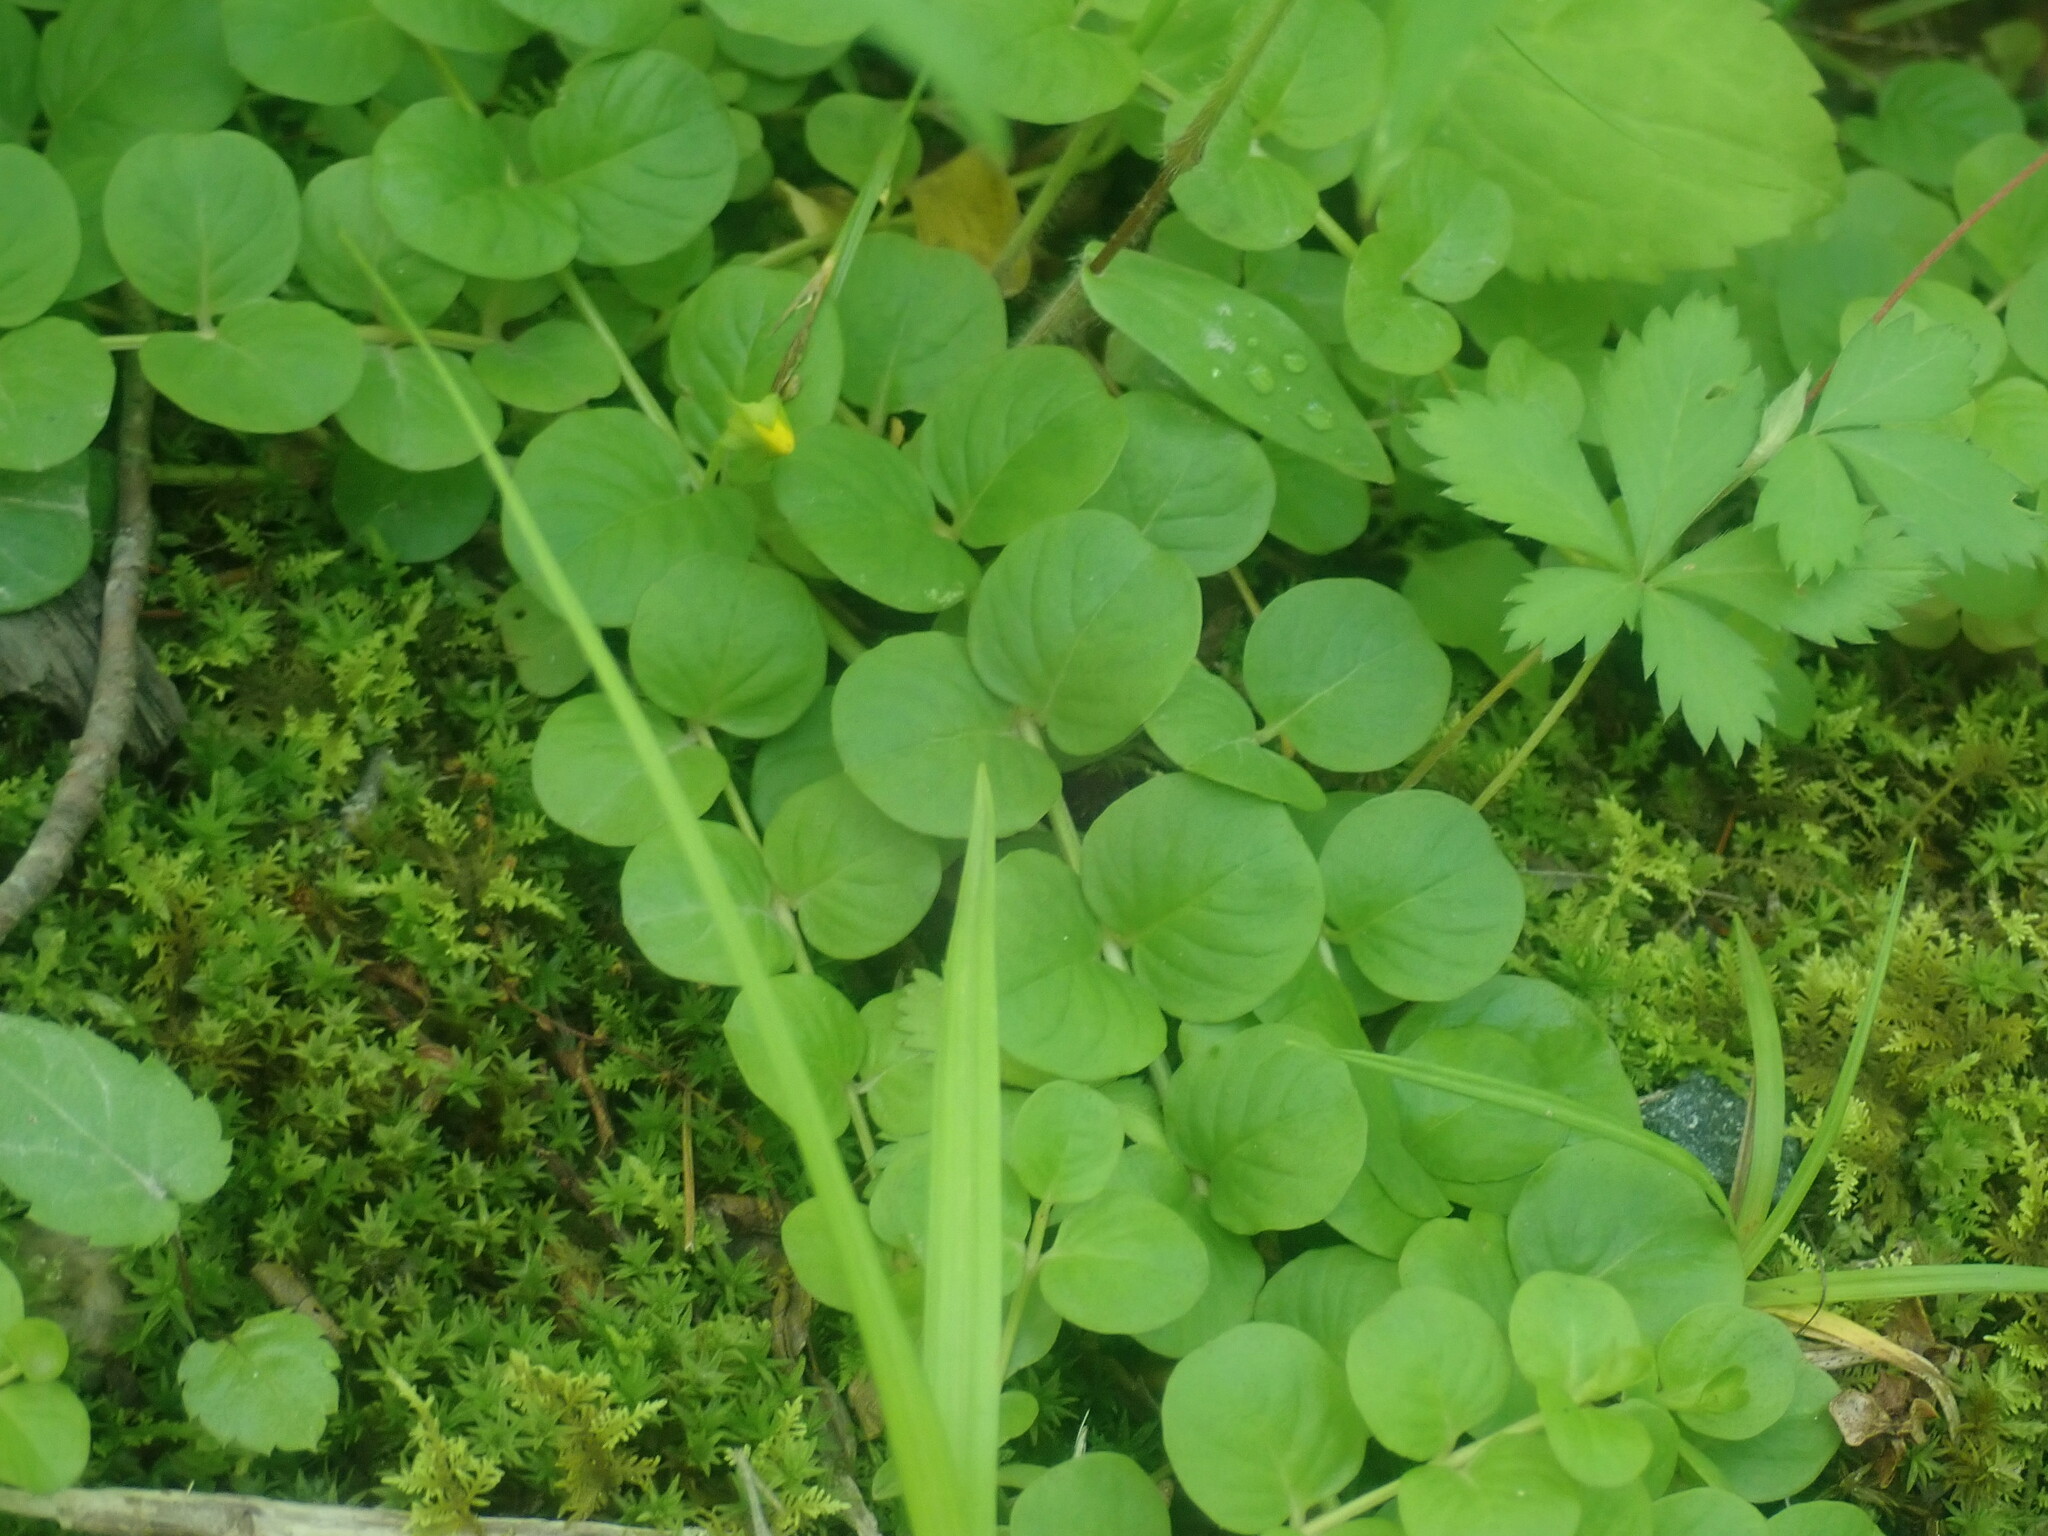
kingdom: Plantae
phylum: Tracheophyta
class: Magnoliopsida
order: Ericales
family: Primulaceae
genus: Lysimachia
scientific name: Lysimachia nummularia
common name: Moneywort
